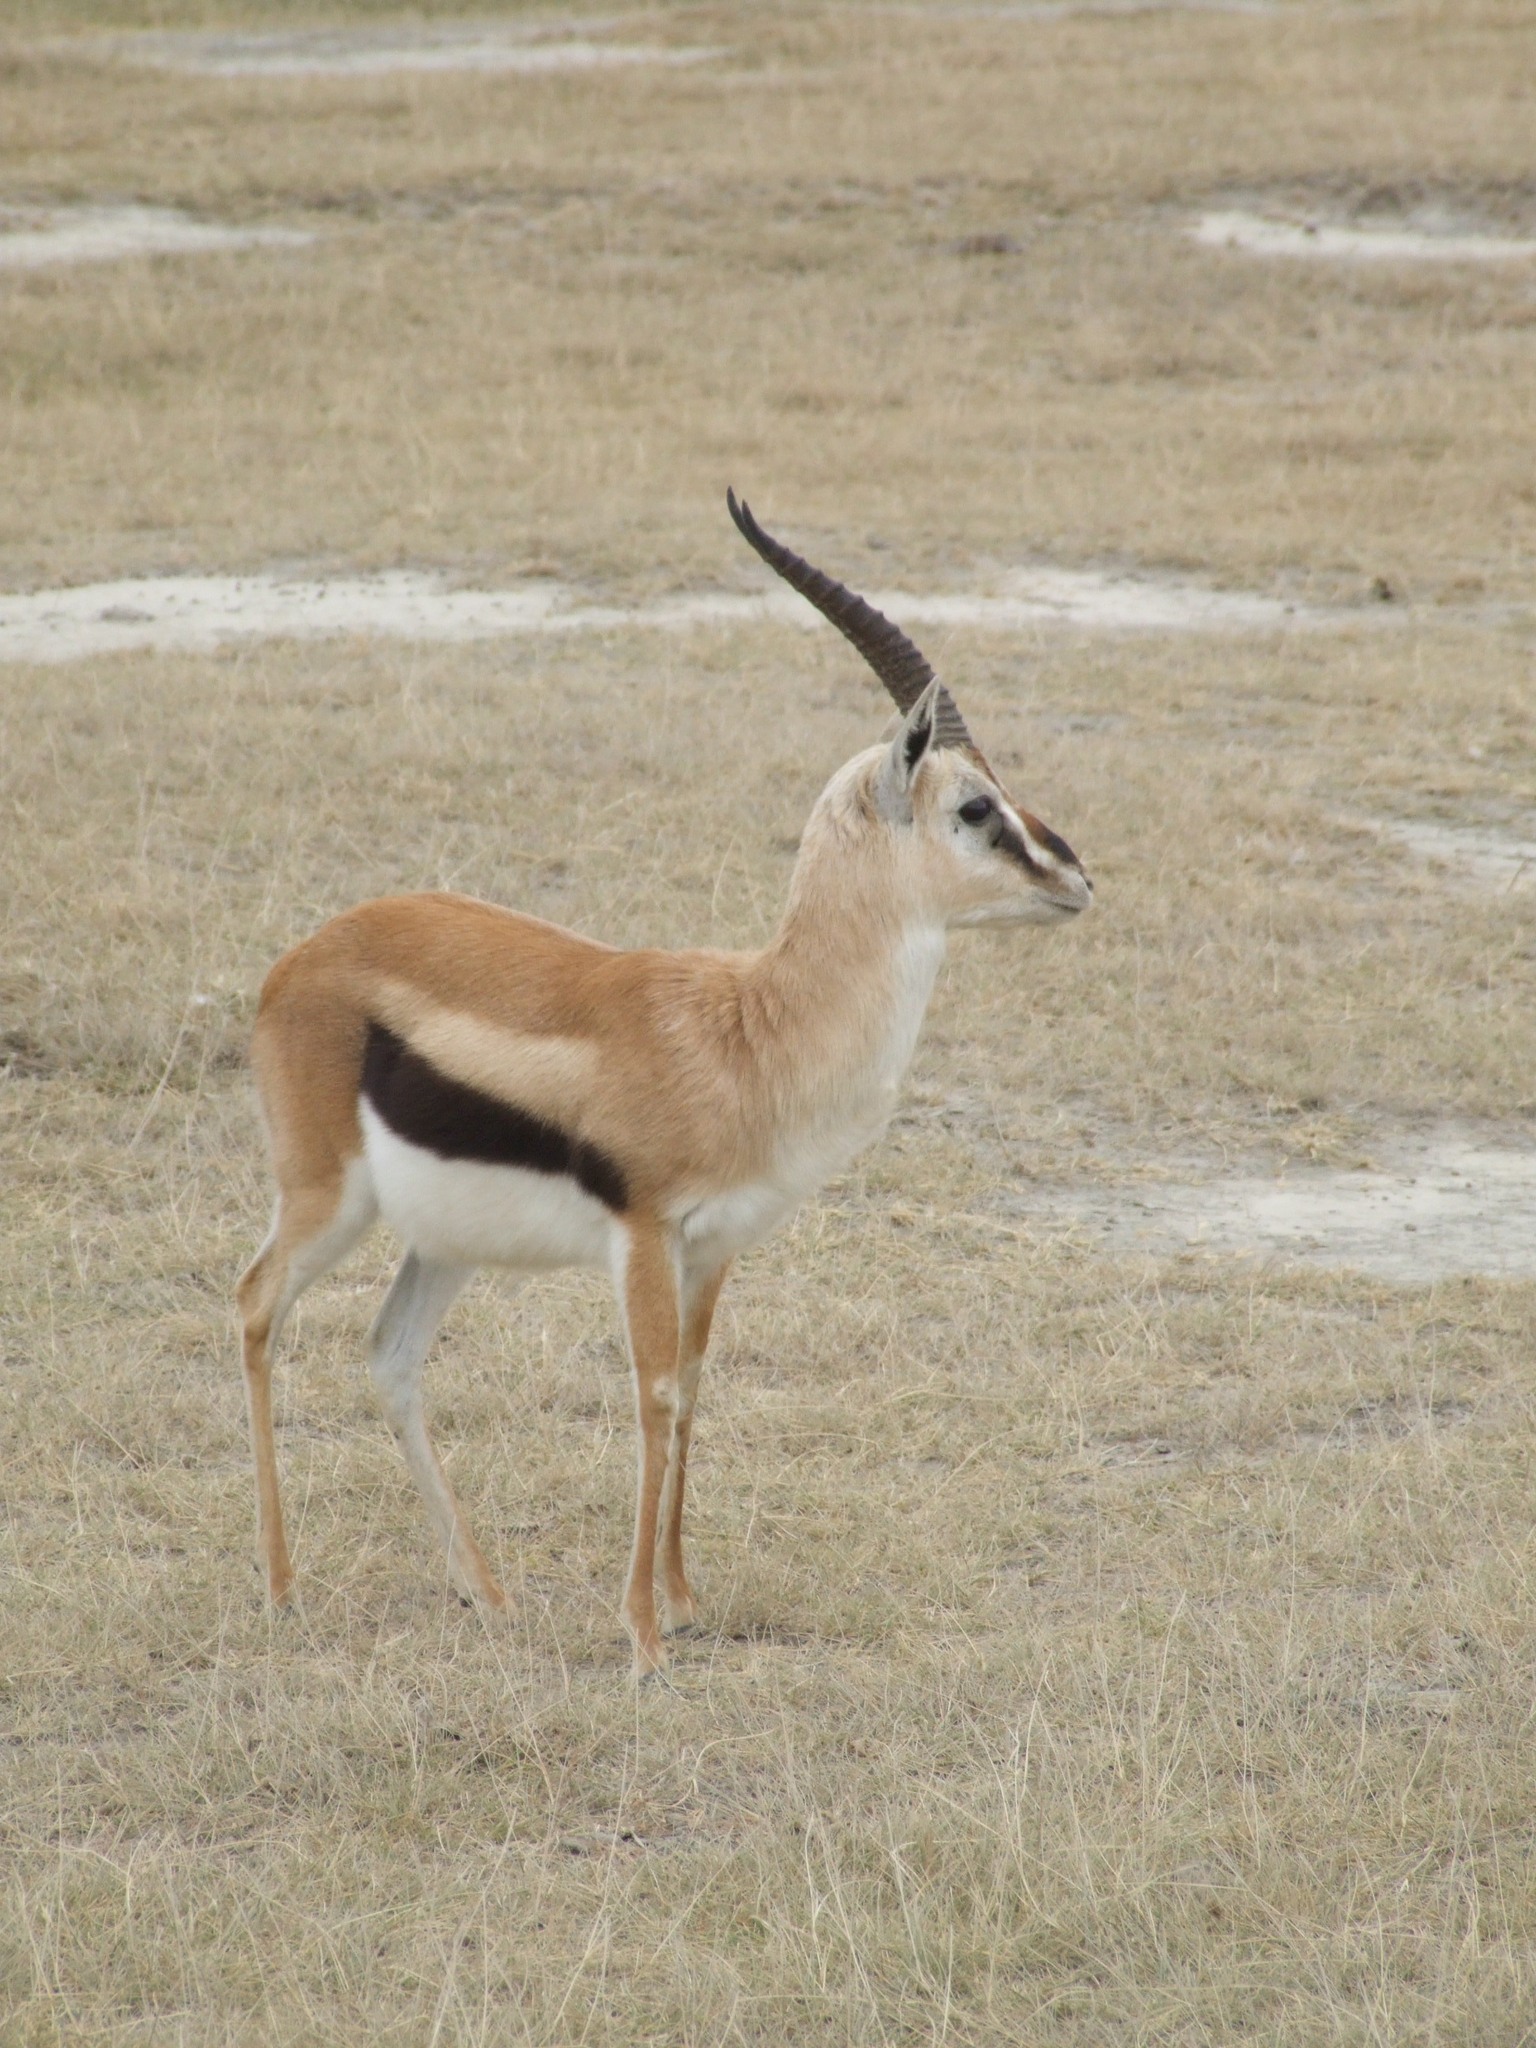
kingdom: Animalia
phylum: Chordata
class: Mammalia
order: Artiodactyla
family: Bovidae
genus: Eudorcas
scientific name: Eudorcas thomsonii
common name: Thomson's gazelle
